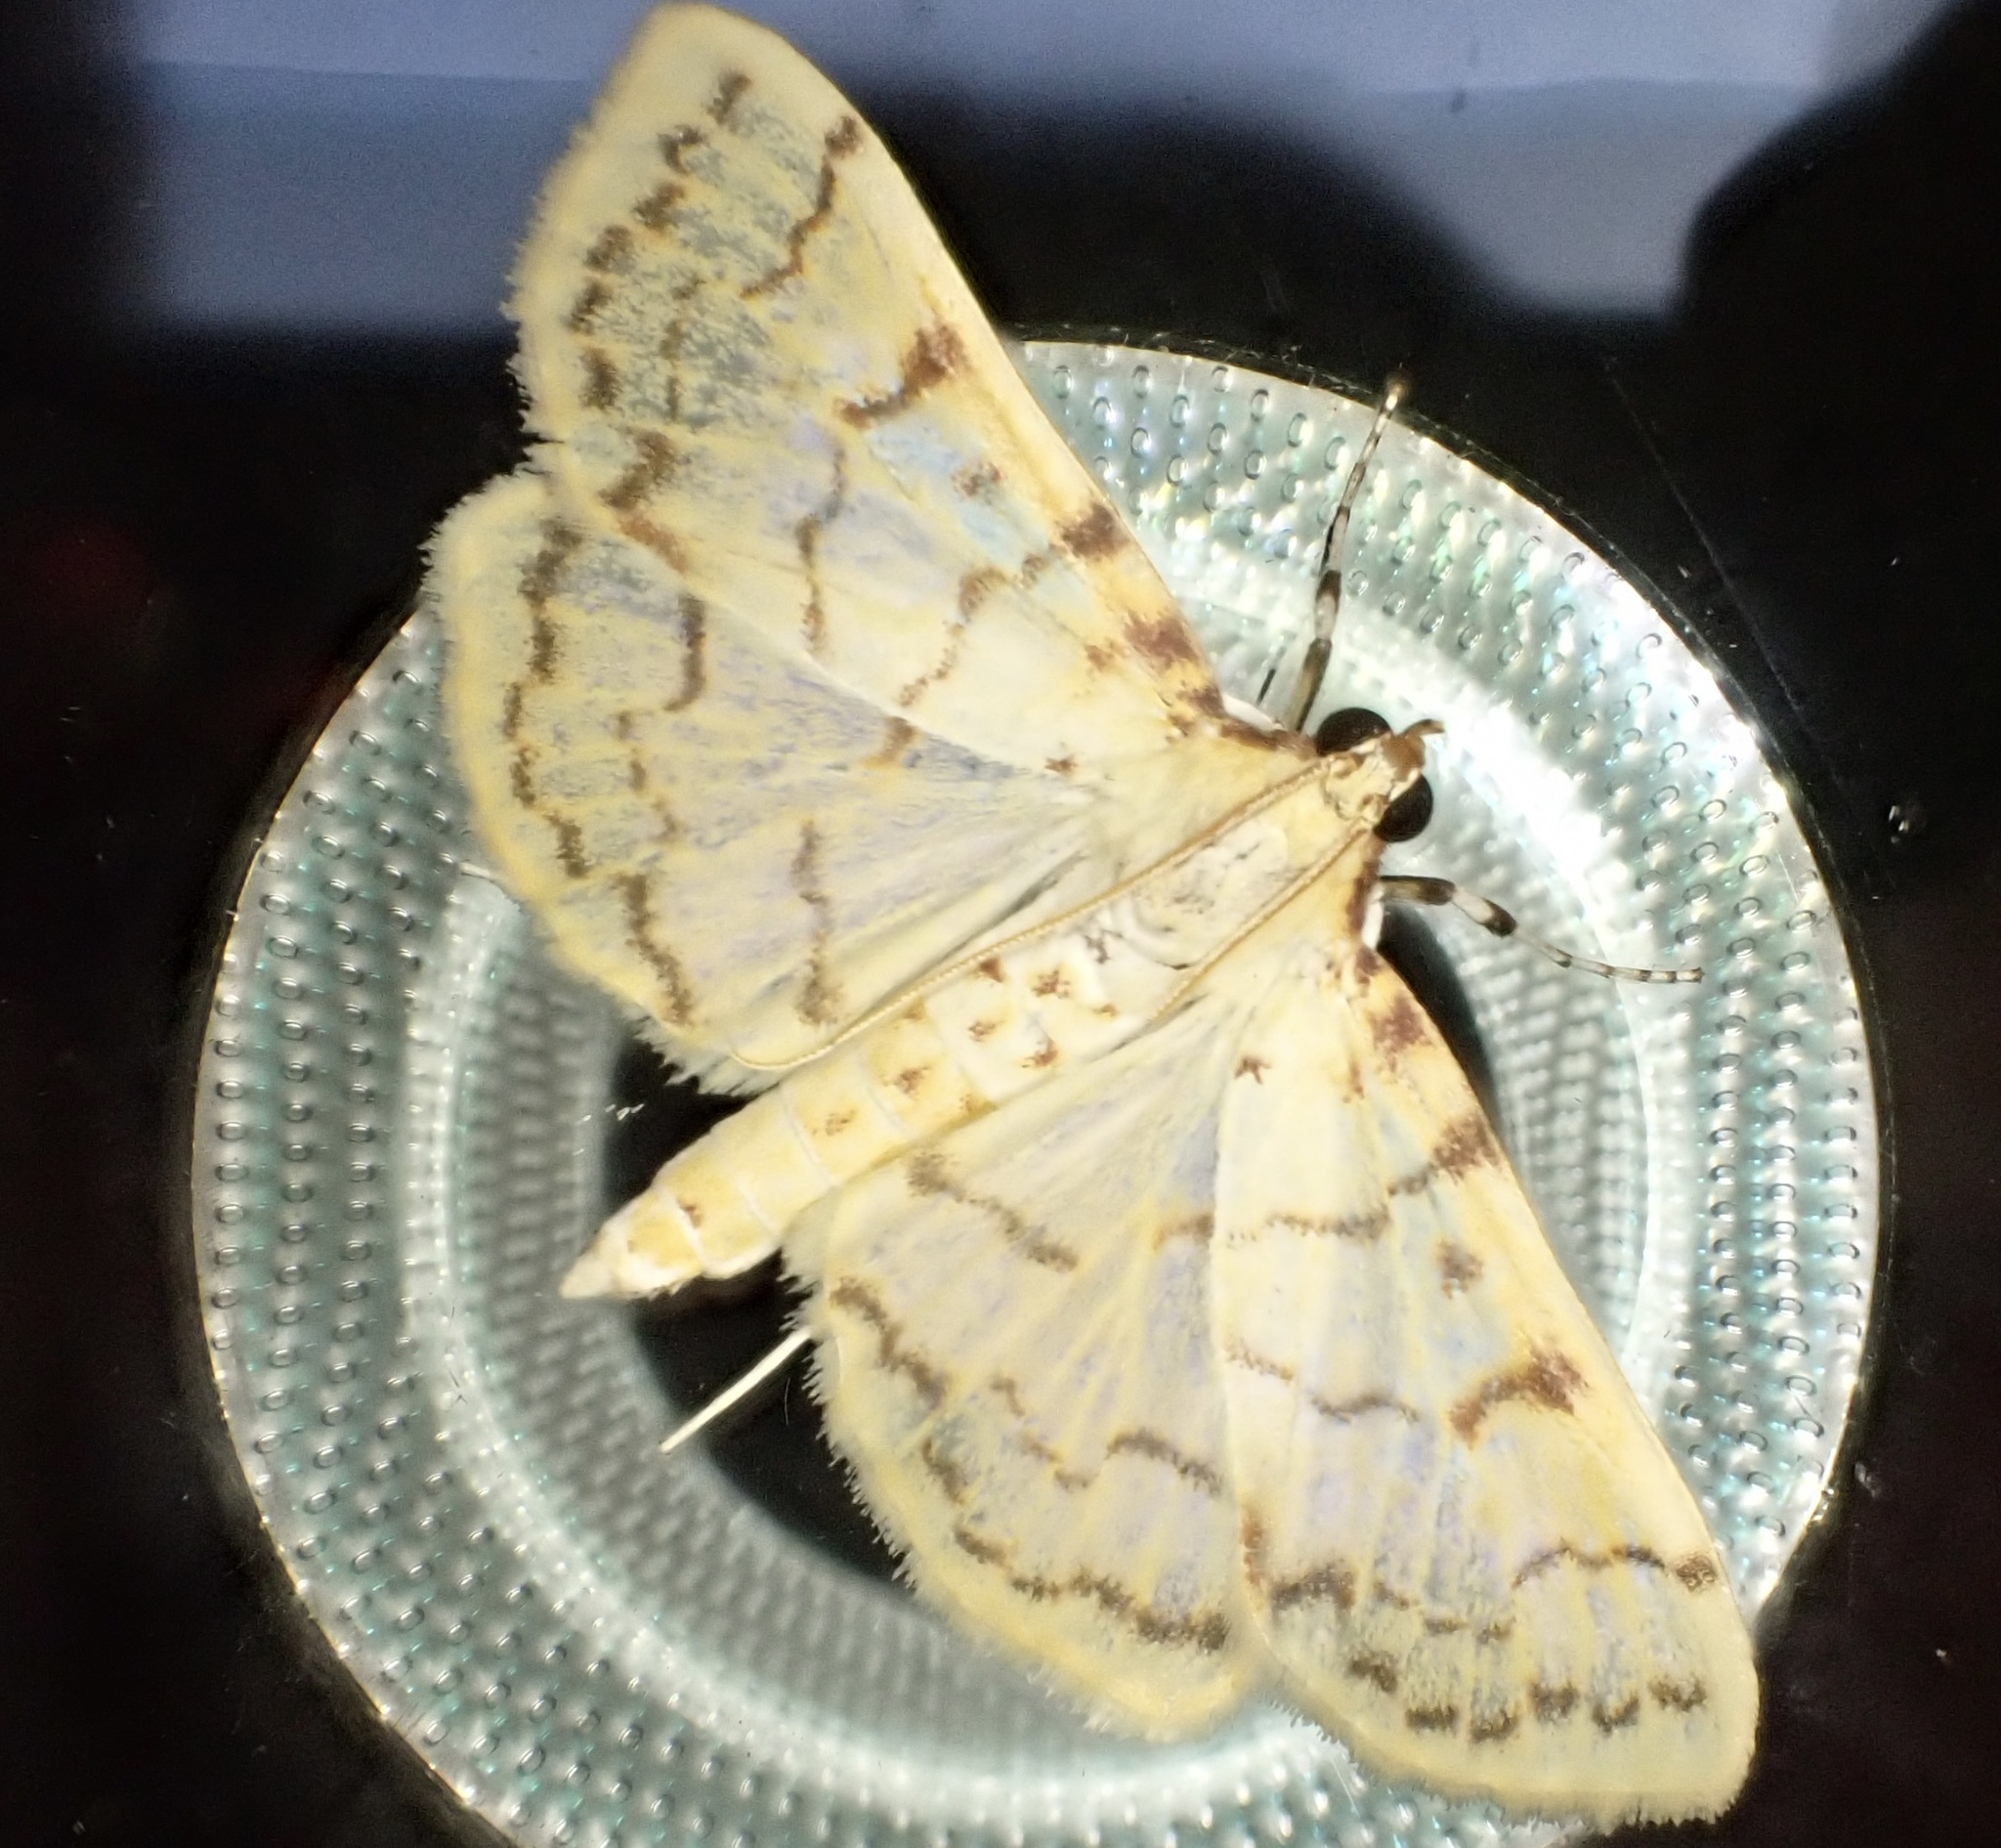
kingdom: Animalia
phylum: Arthropoda
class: Insecta
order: Lepidoptera
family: Crambidae
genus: Polygrammodes
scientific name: Polygrammodes flavidalis
